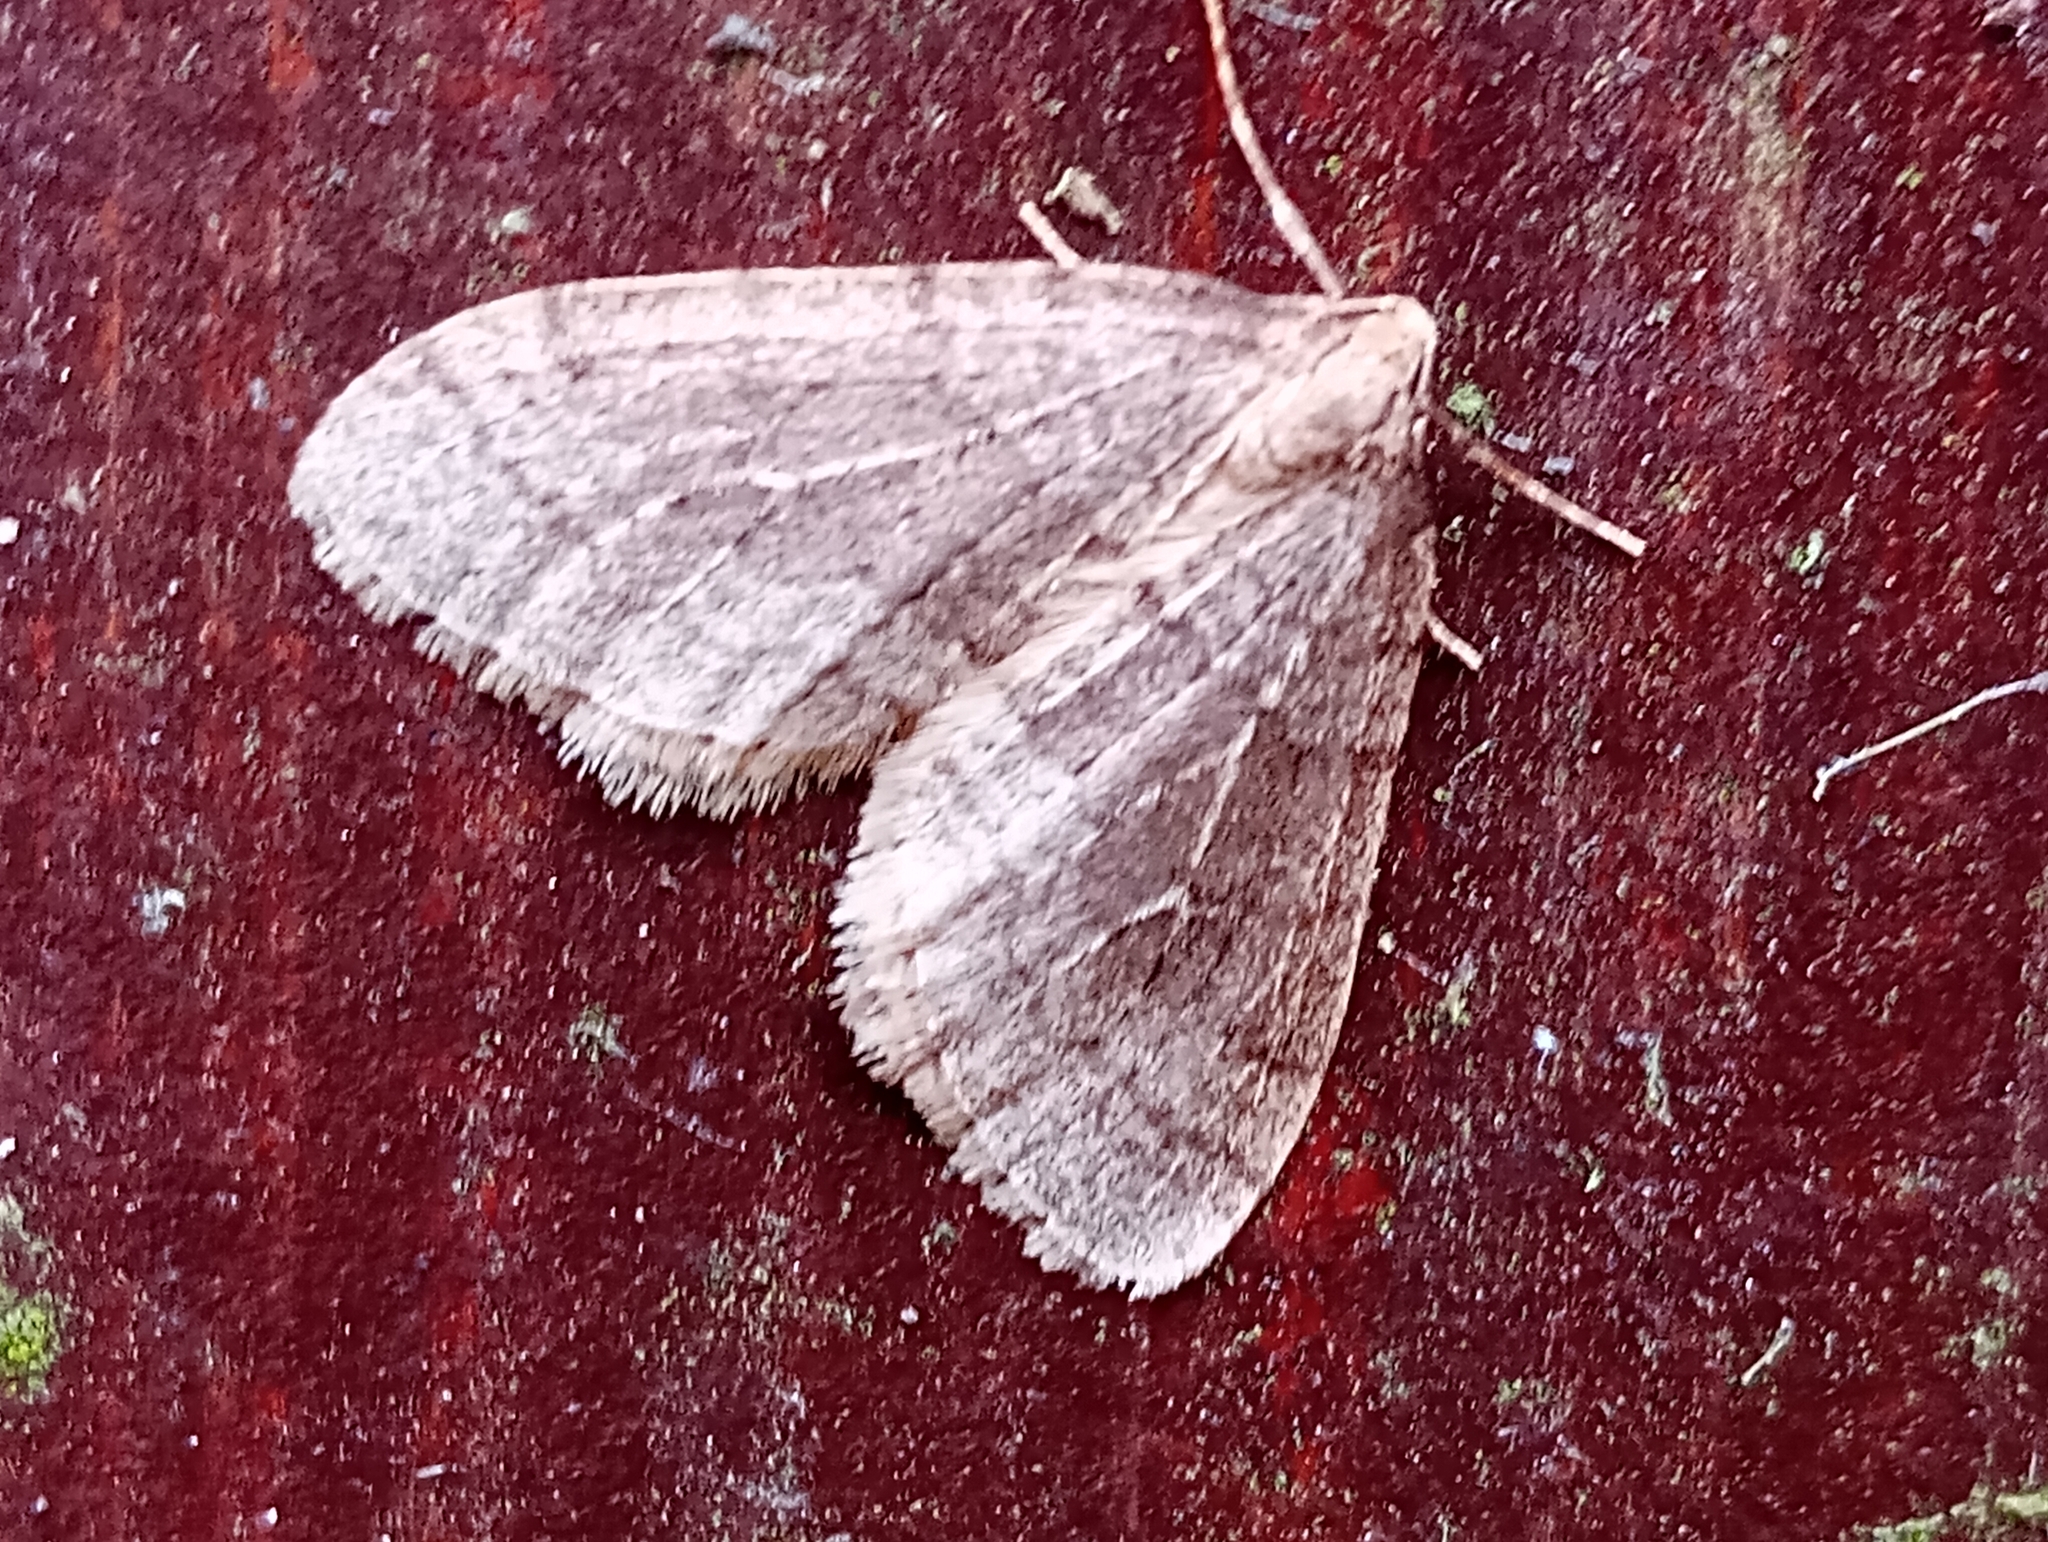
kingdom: Animalia
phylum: Arthropoda
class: Insecta
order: Lepidoptera
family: Geometridae
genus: Operophtera
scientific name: Operophtera brumata
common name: Winter moth
